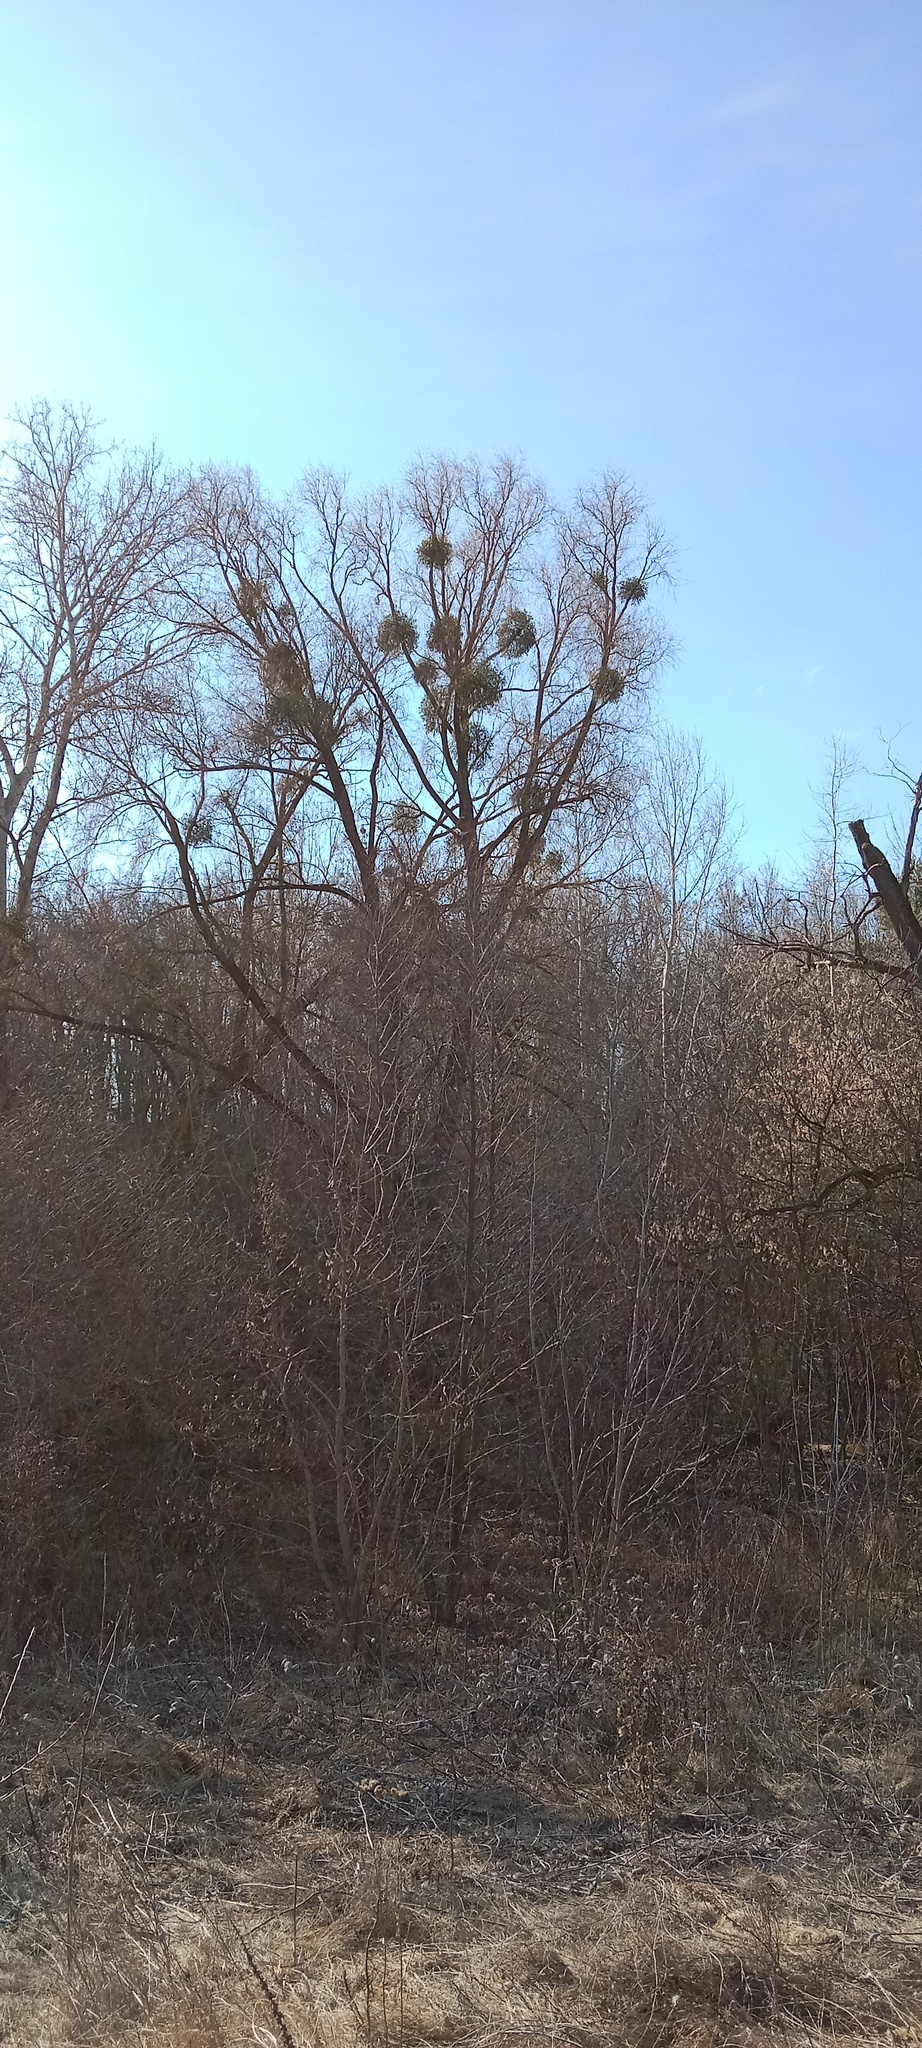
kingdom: Plantae
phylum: Tracheophyta
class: Magnoliopsida
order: Santalales
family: Viscaceae
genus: Viscum
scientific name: Viscum album
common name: Mistletoe
